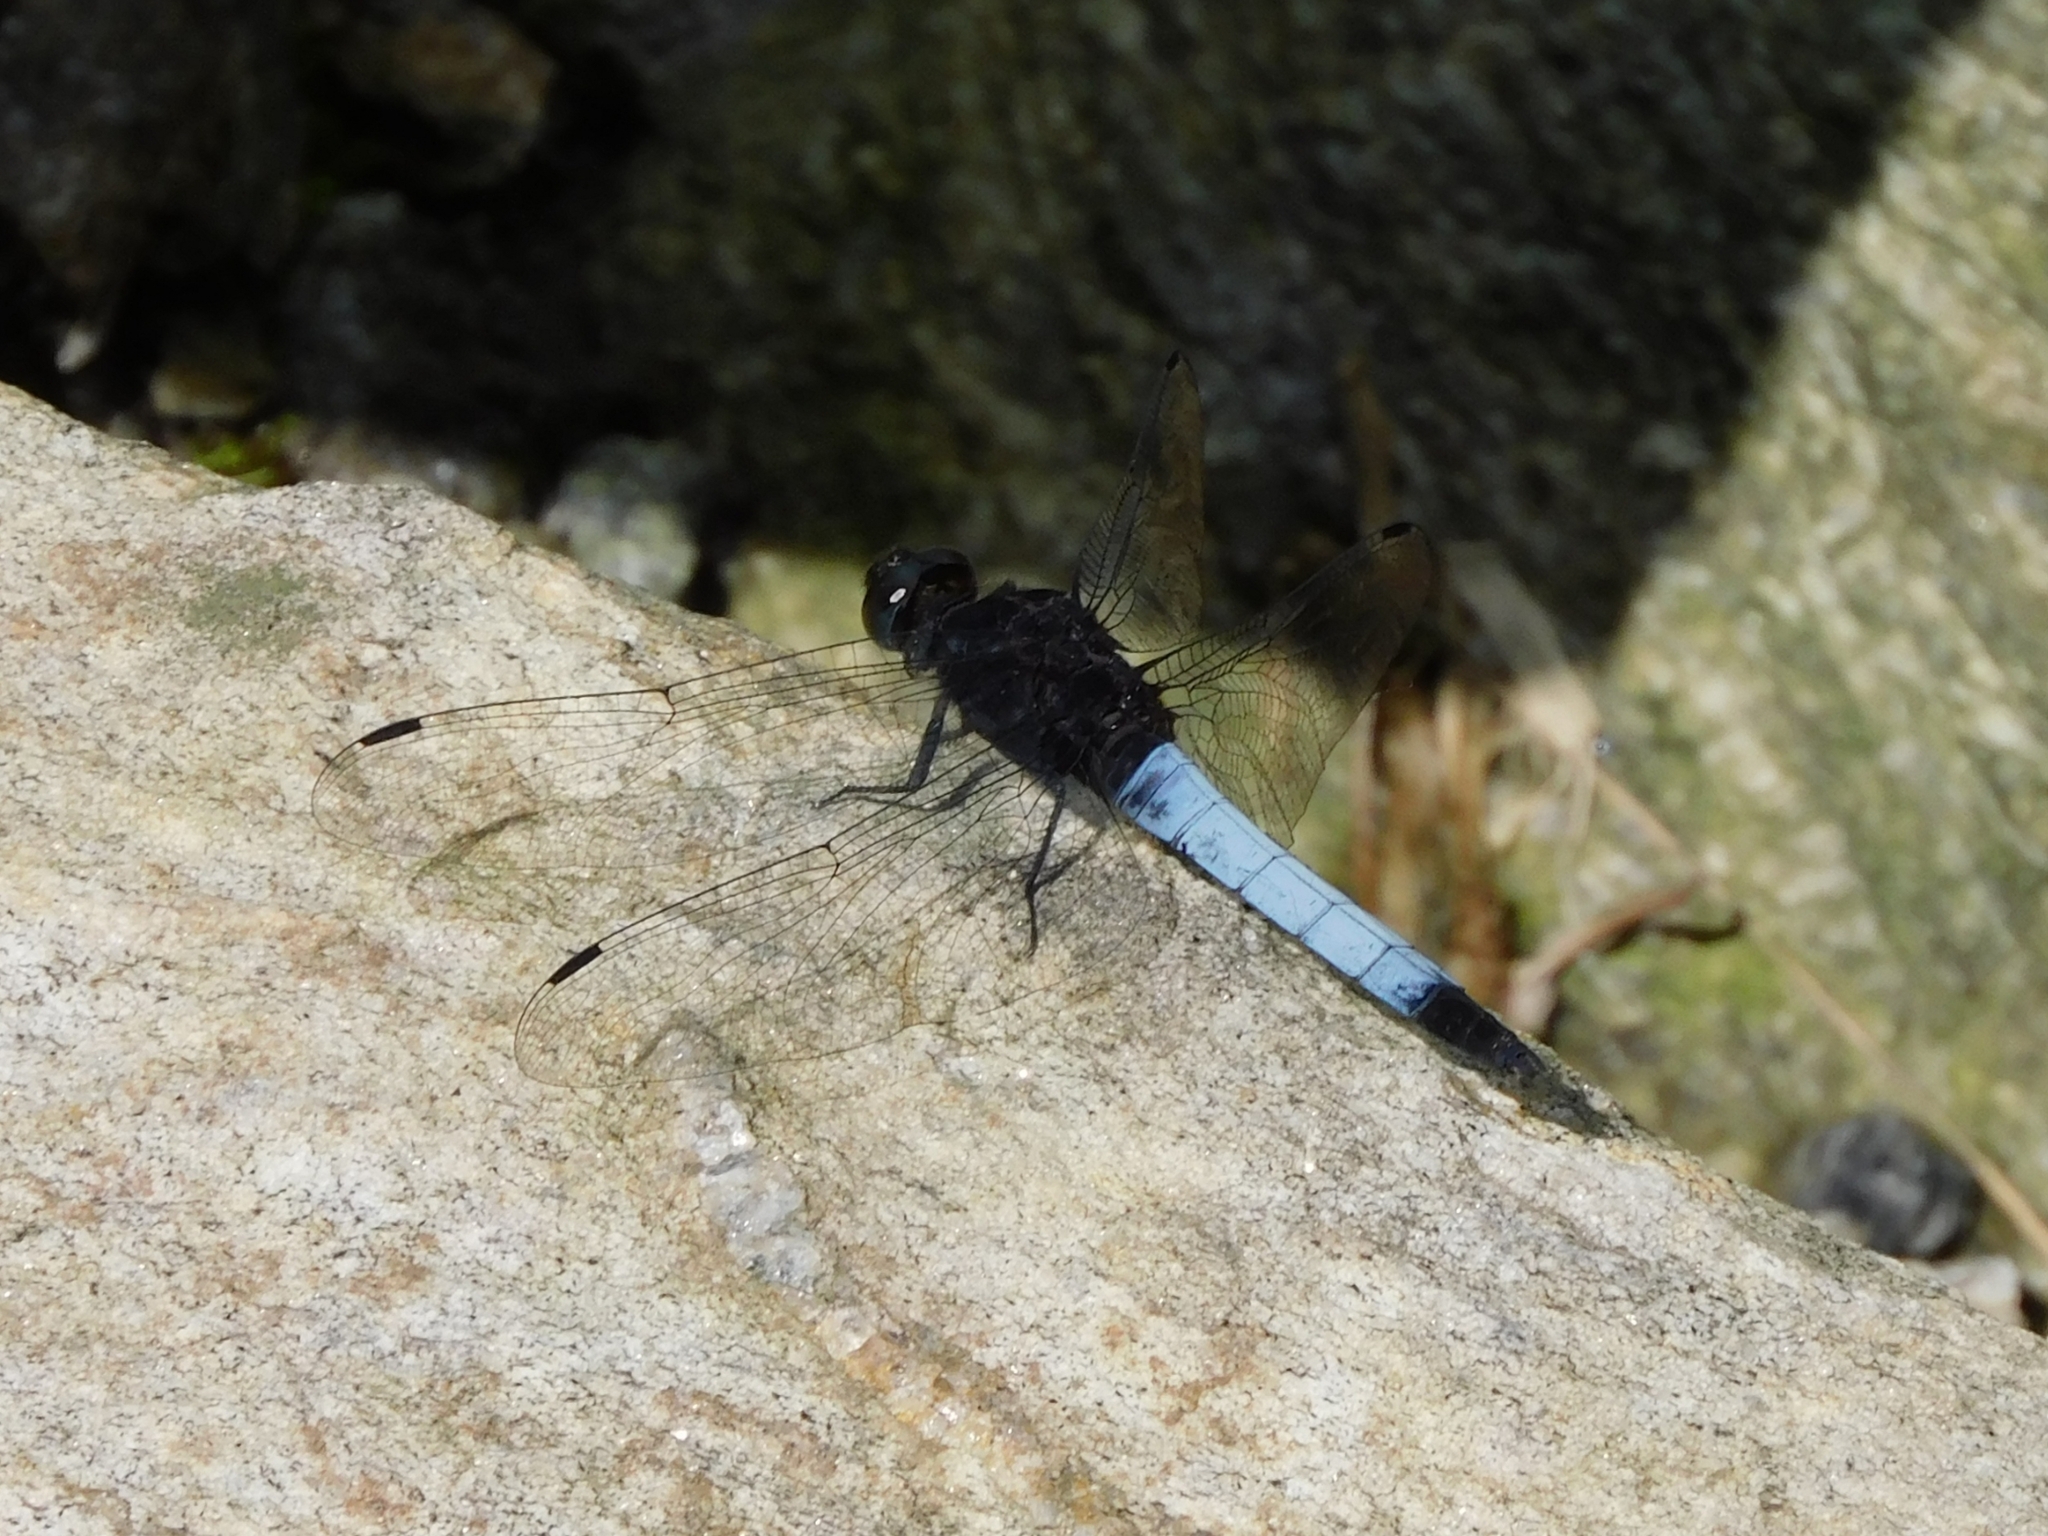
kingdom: Animalia
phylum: Arthropoda
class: Insecta
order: Odonata
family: Libellulidae
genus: Orthetrum
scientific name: Orthetrum triangulare
